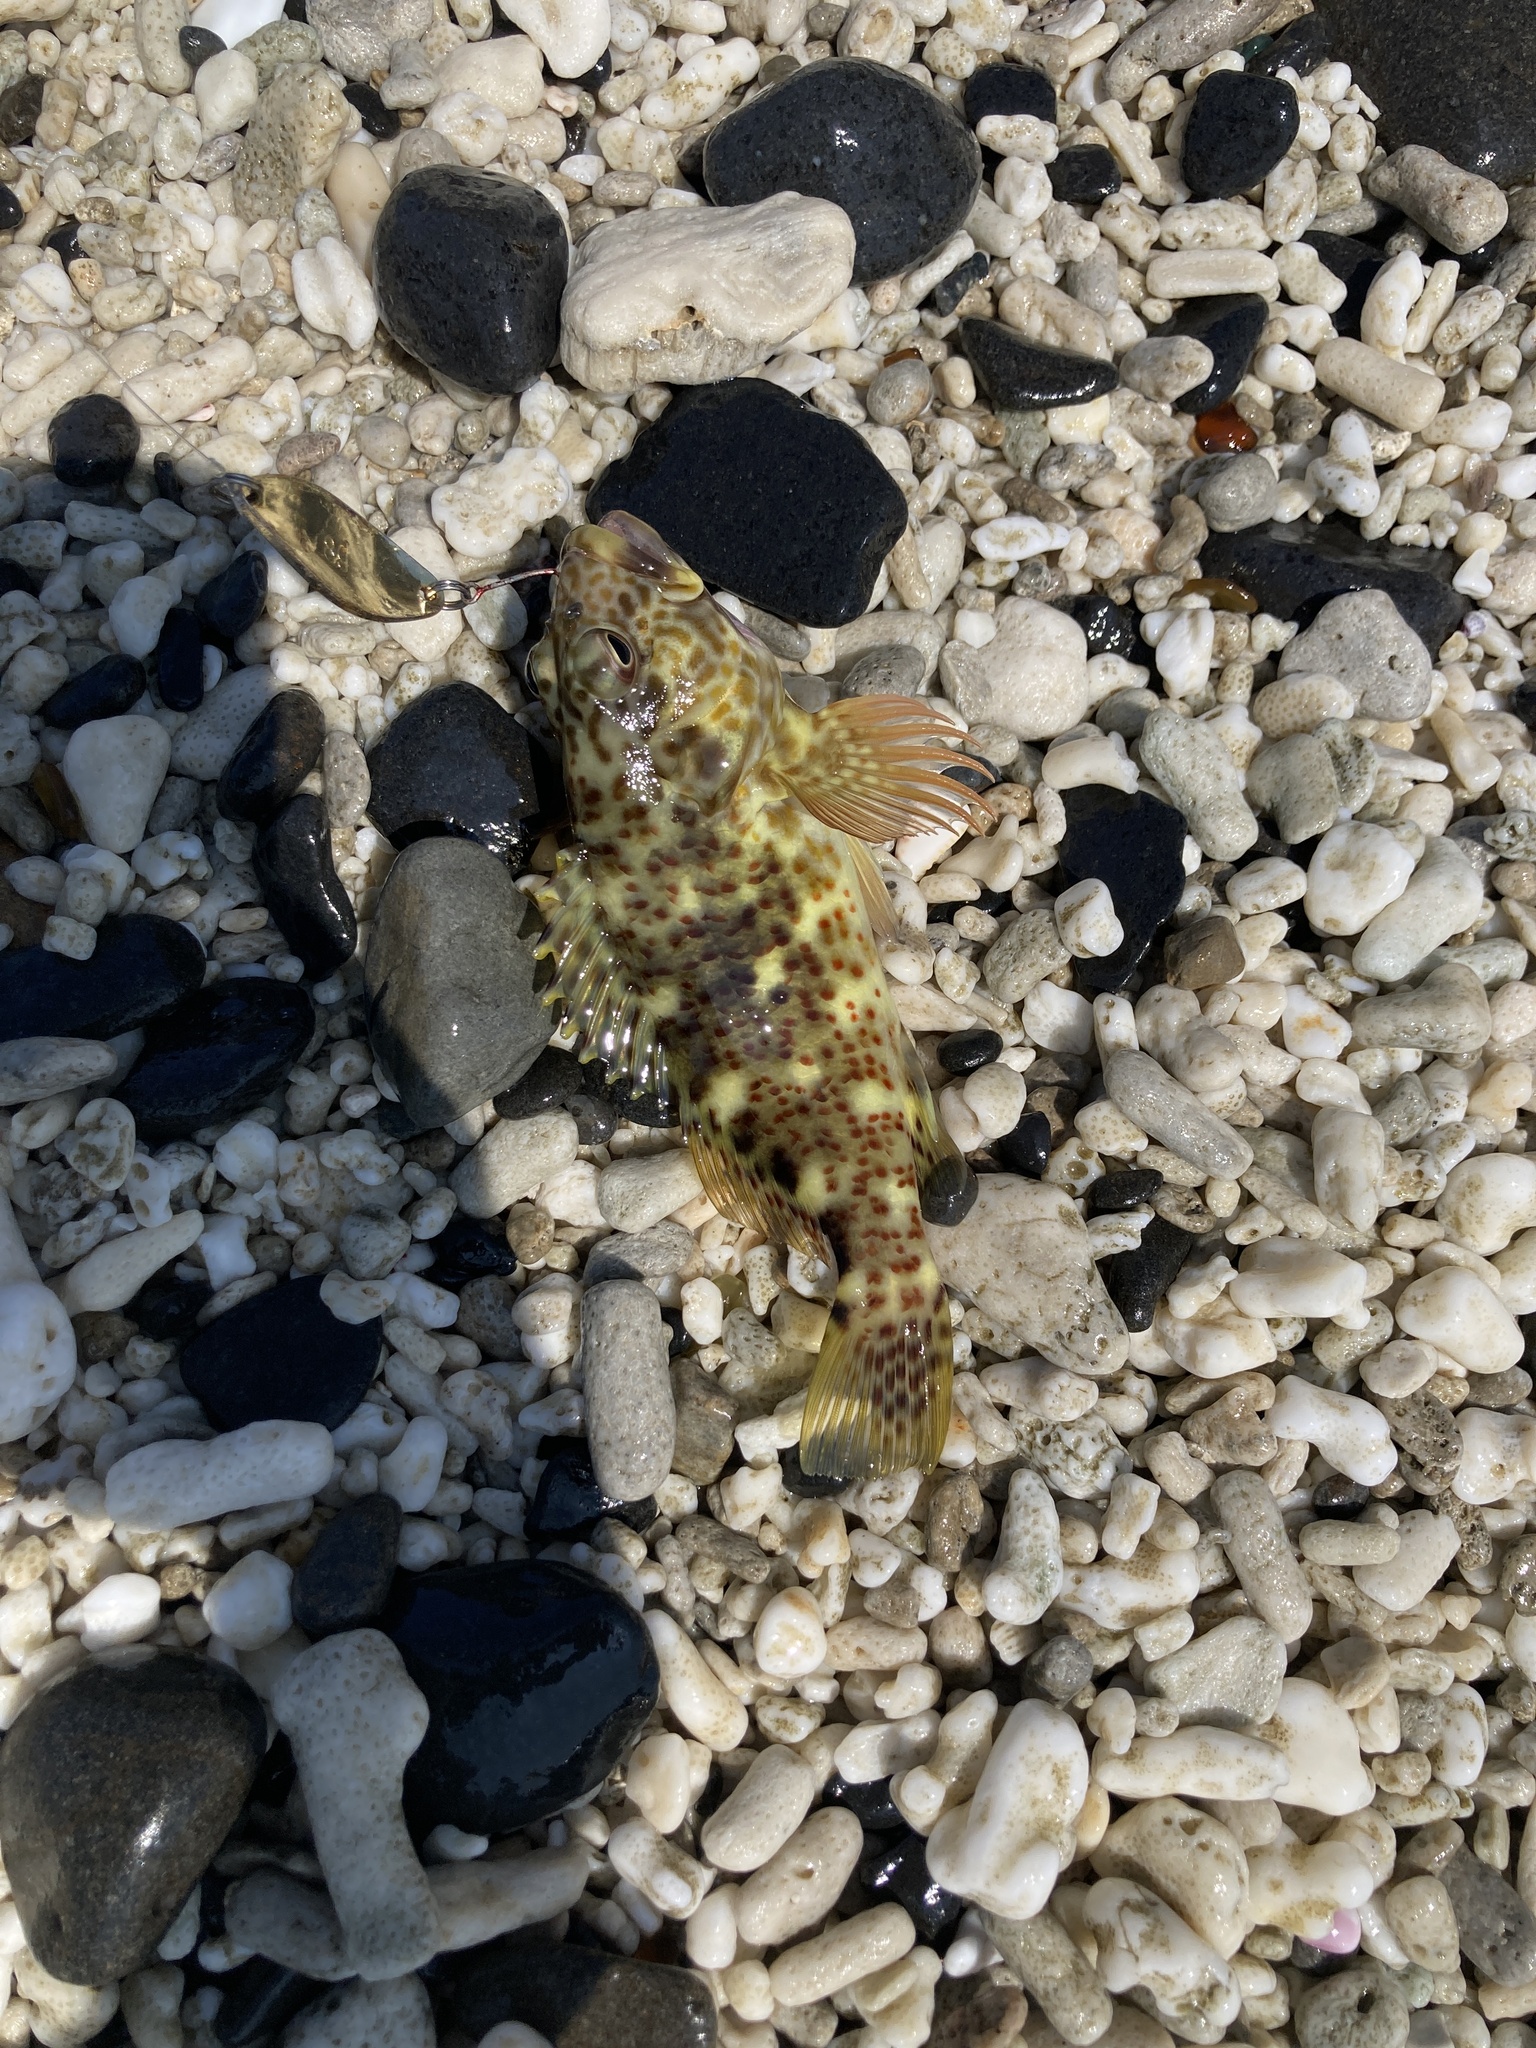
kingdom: Animalia
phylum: Chordata
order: Perciformes
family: Cirrhitidae
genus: Cirrhitus
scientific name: Cirrhitus pinnulatus
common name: Stocky hawkfish
